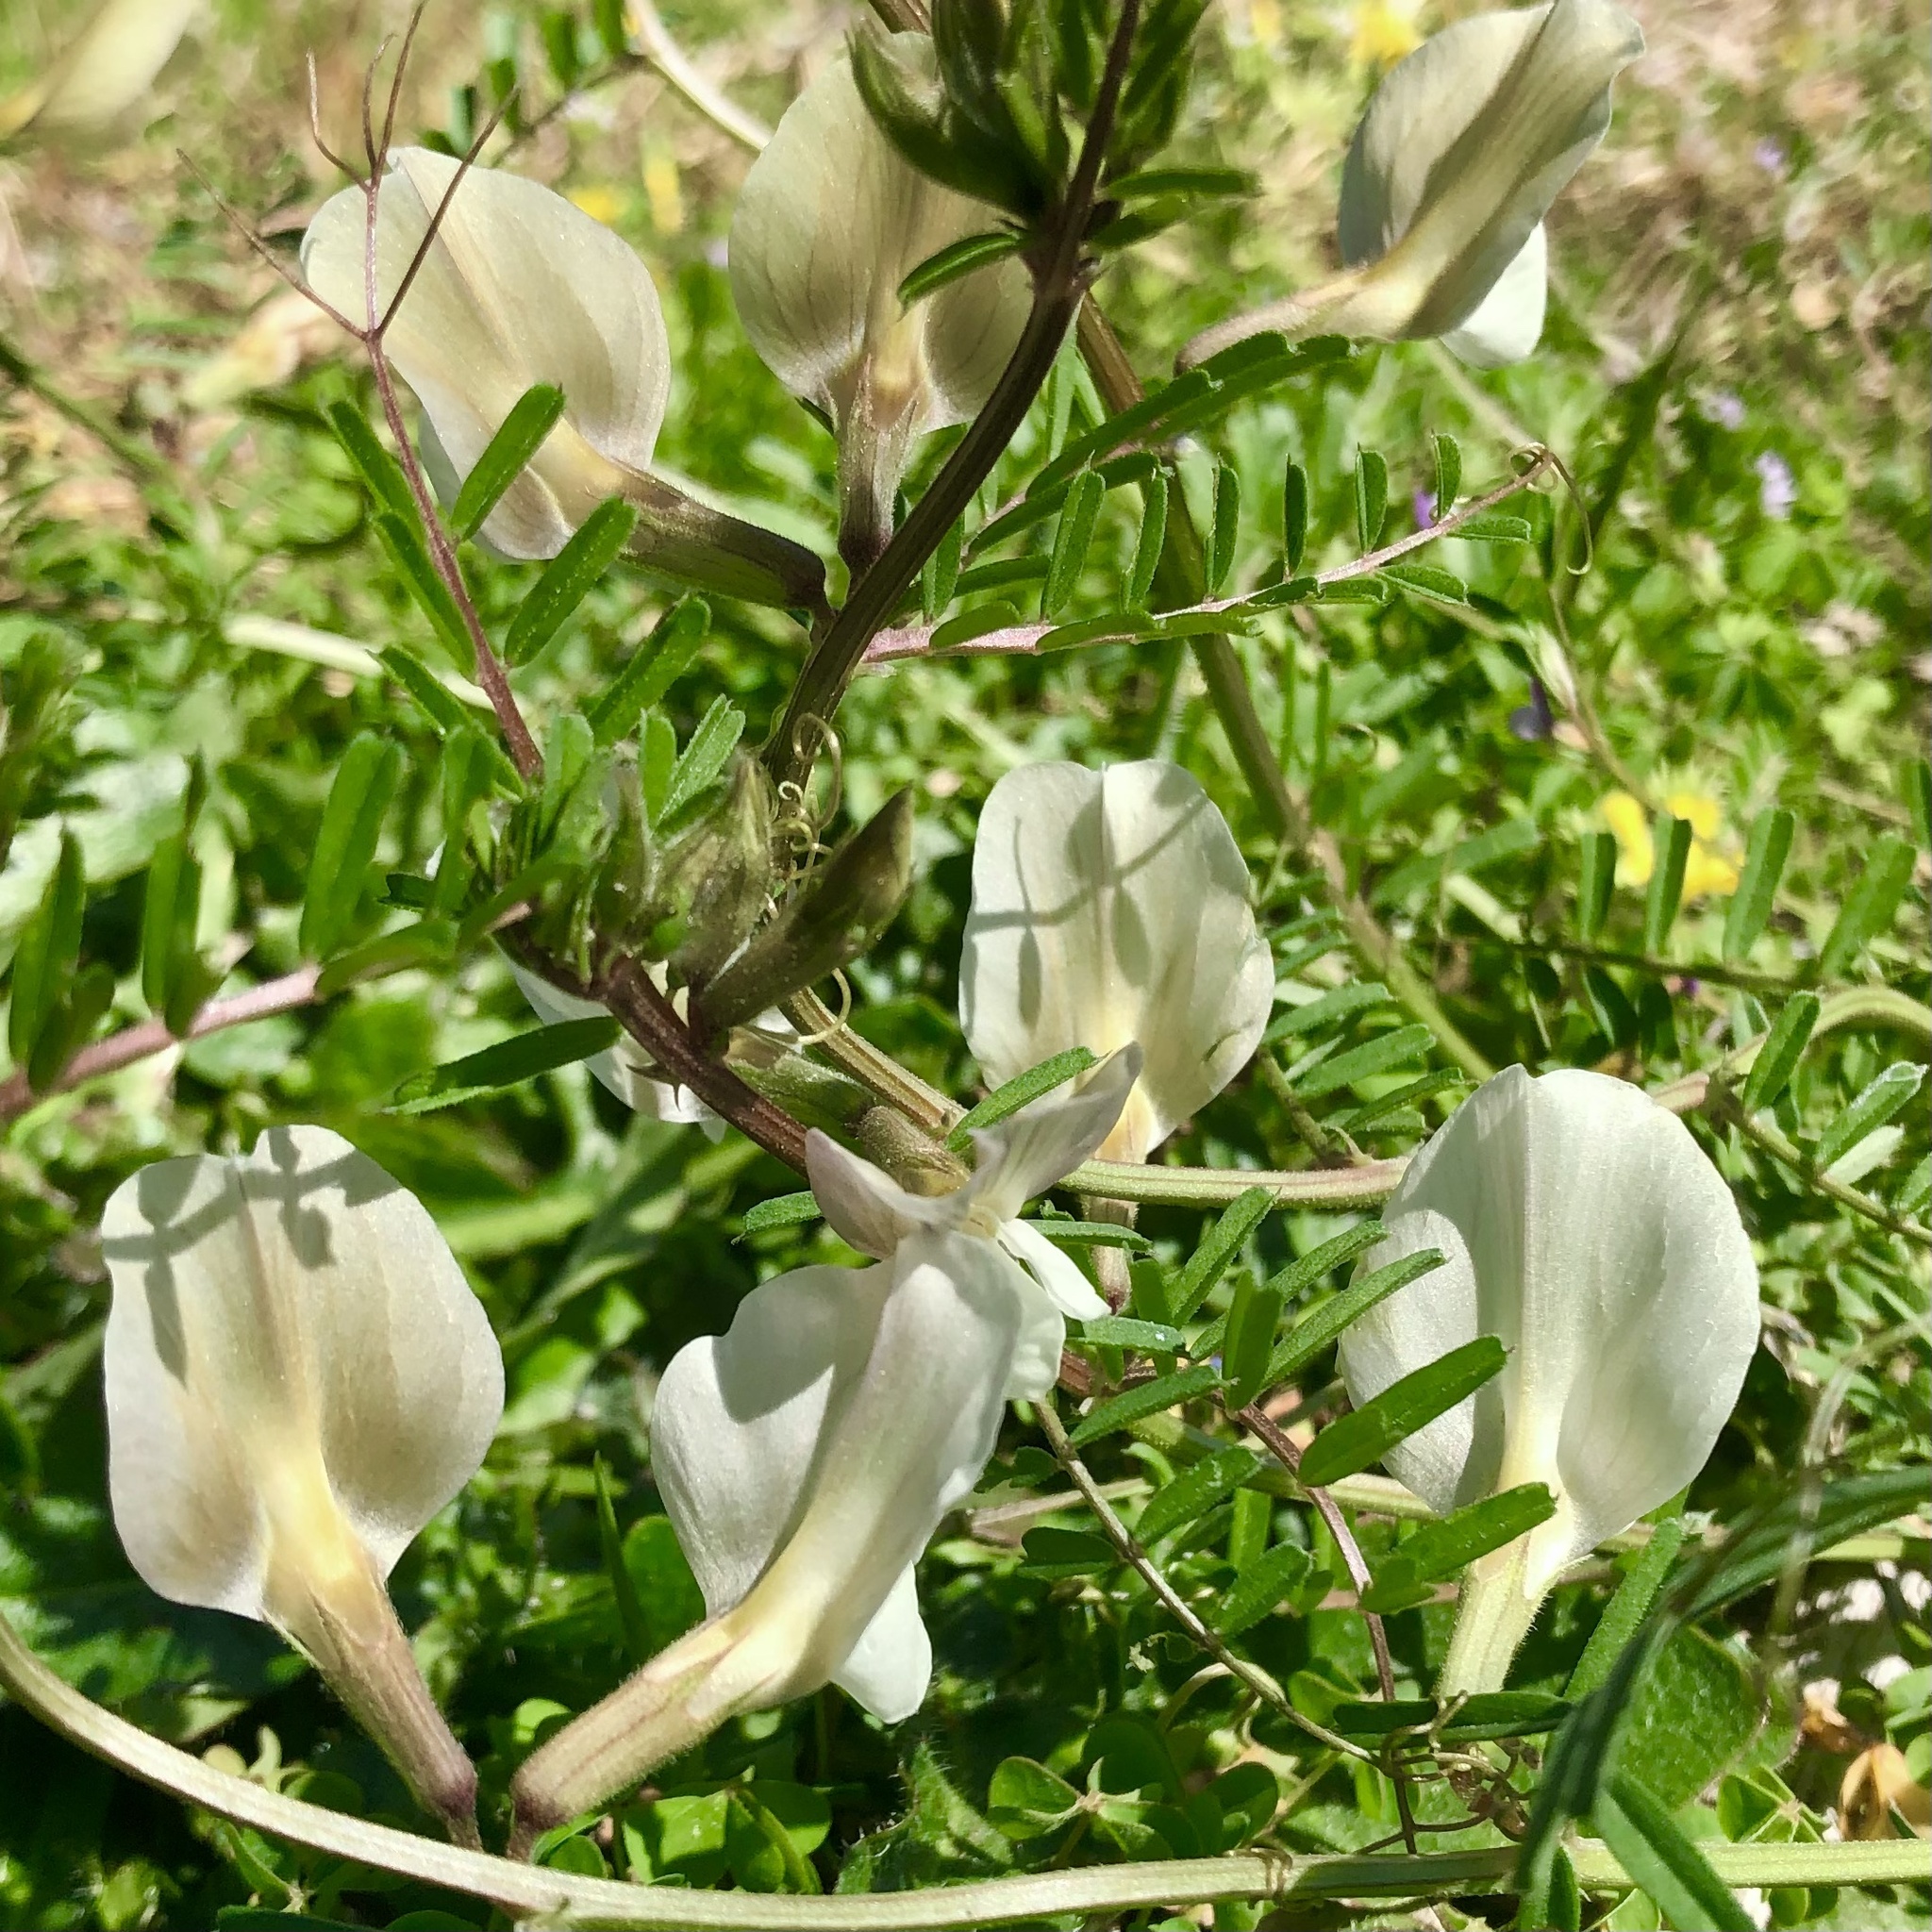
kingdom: Plantae
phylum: Tracheophyta
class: Magnoliopsida
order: Fabales
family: Fabaceae
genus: Vicia
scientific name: Vicia grandiflora
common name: Large yellow vetch
